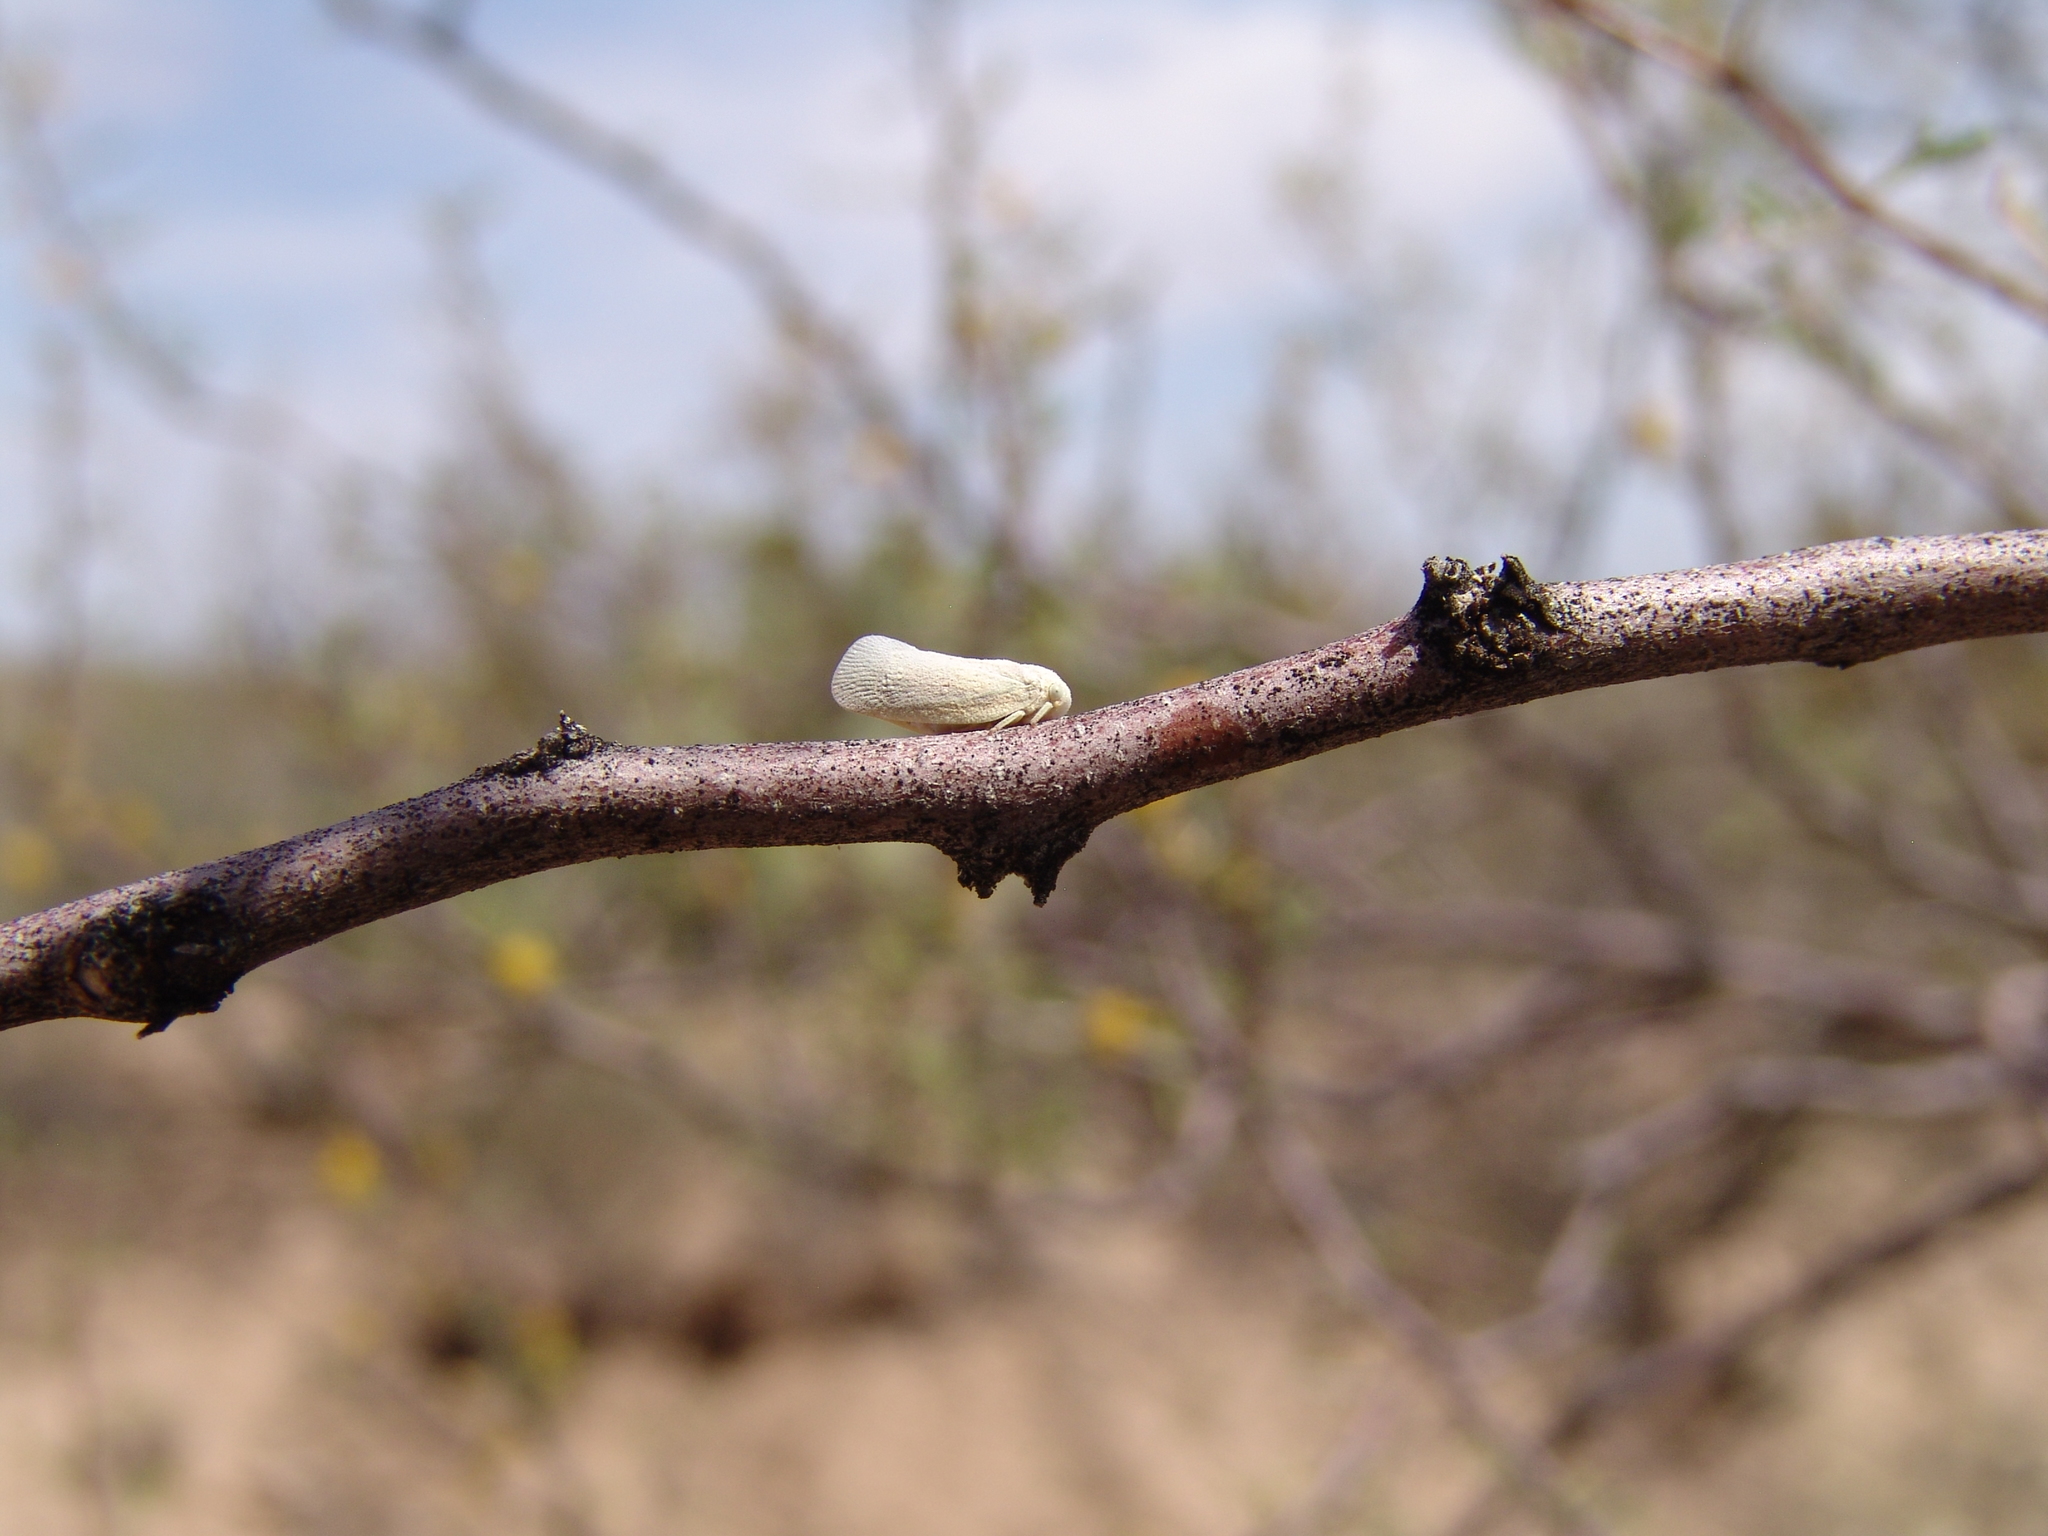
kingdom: Animalia
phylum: Arthropoda
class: Insecta
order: Hemiptera
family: Flatidae
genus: Flatormenis
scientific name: Flatormenis saucia
